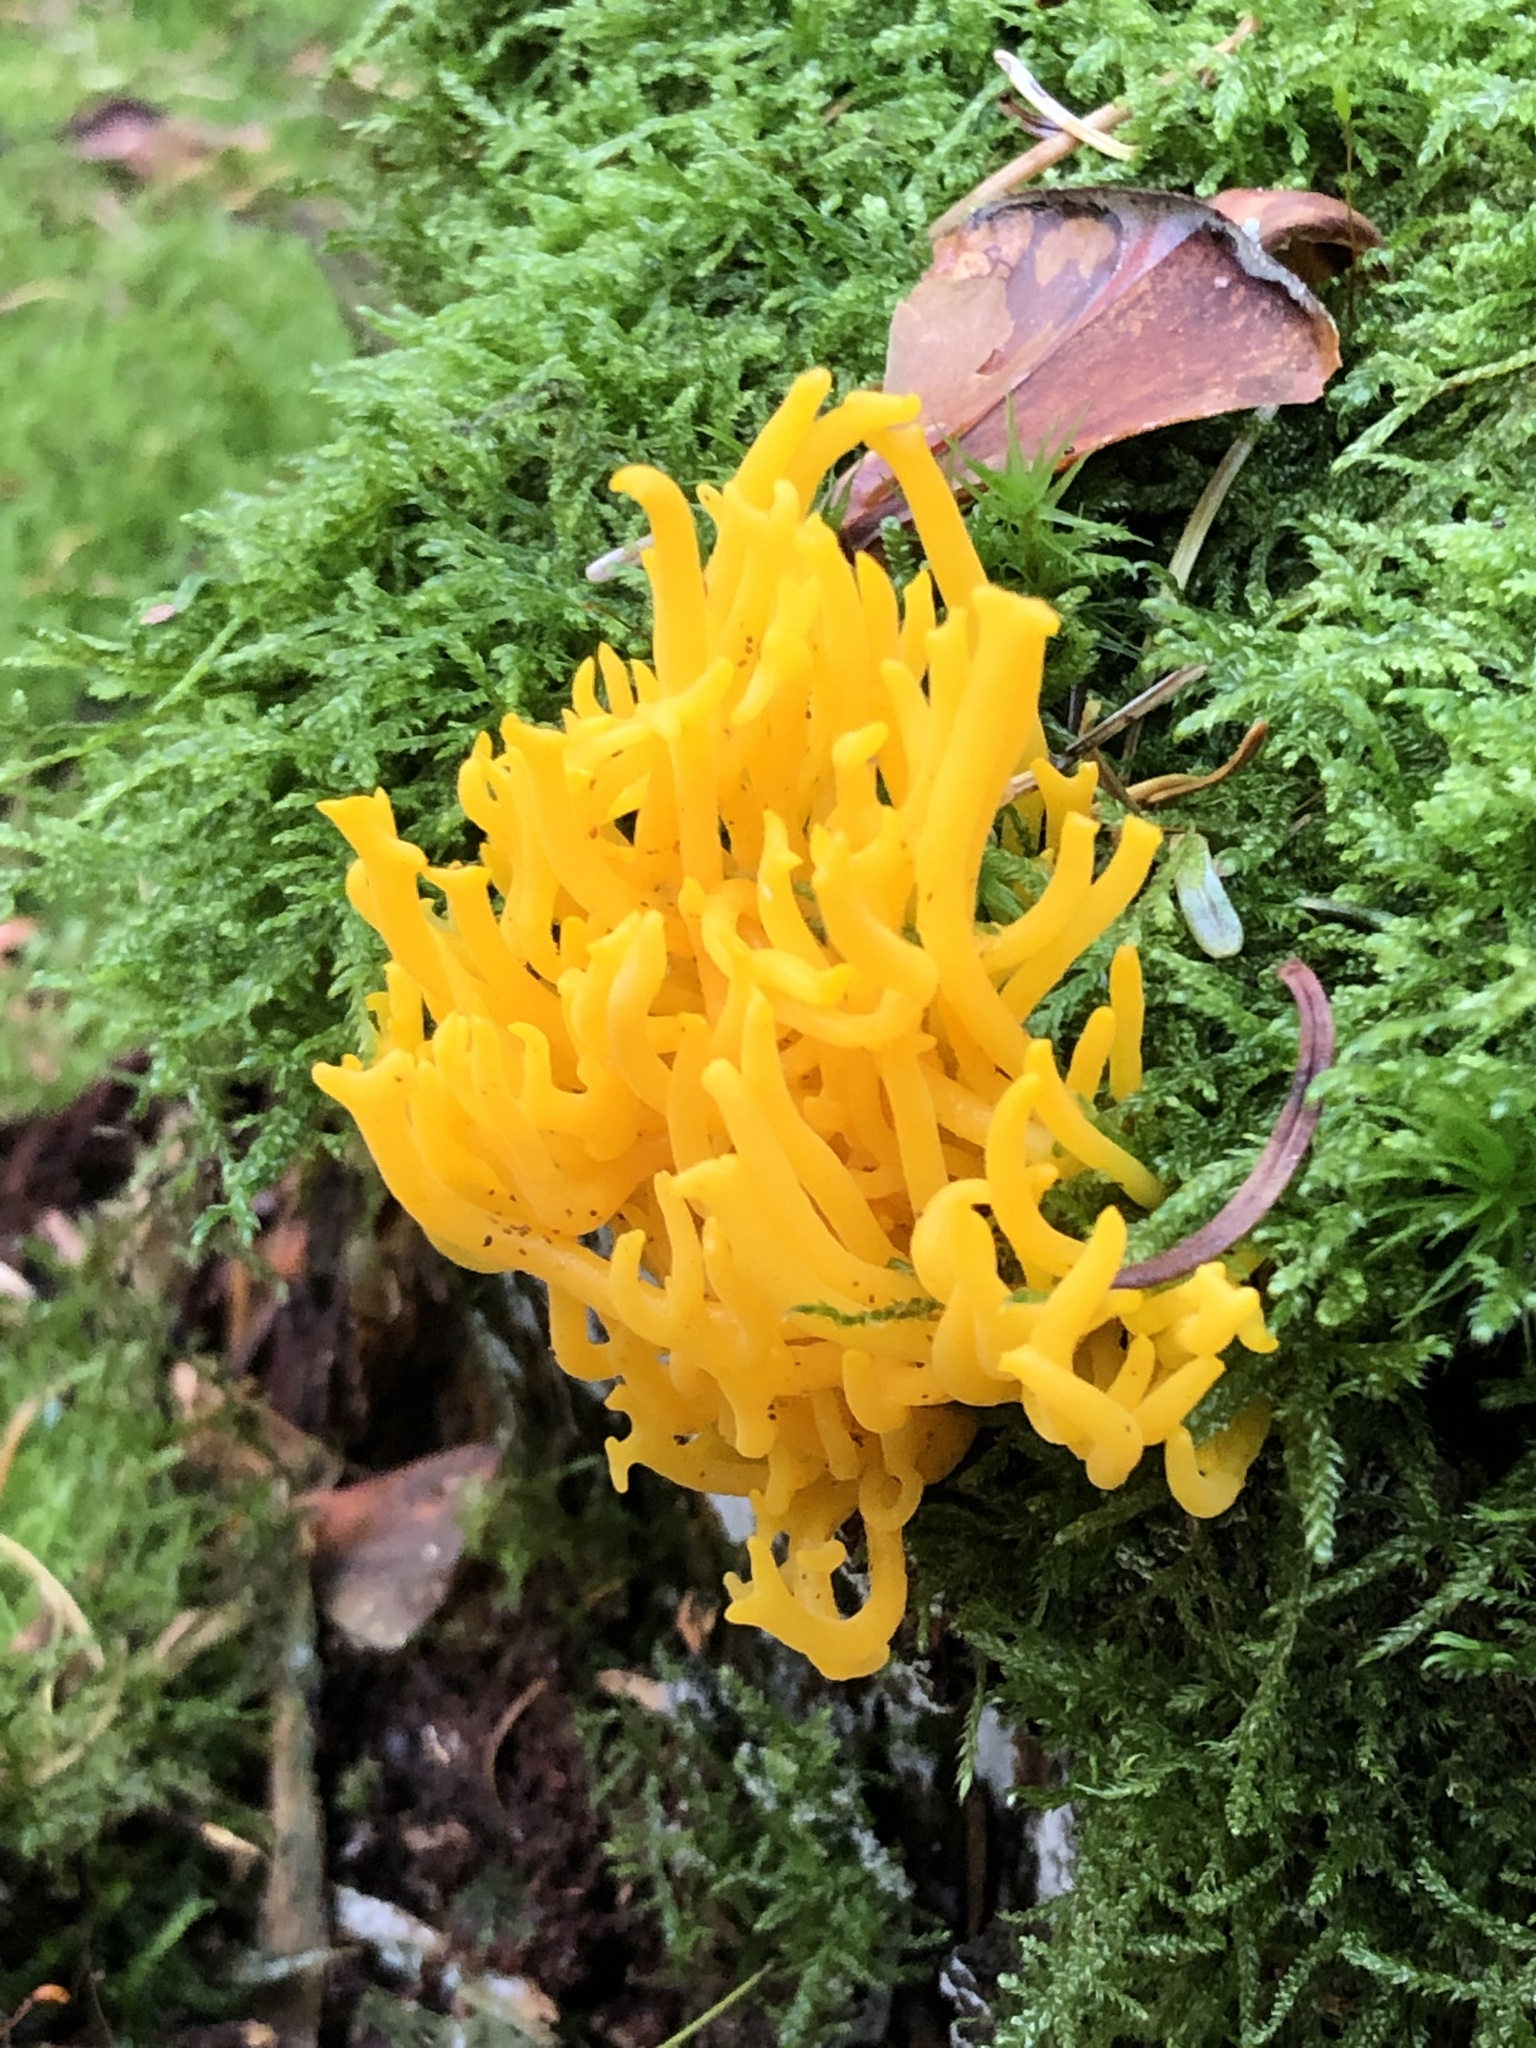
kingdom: Fungi
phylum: Basidiomycota
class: Dacrymycetes
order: Dacrymycetales
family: Dacrymycetaceae
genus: Calocera
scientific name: Calocera viscosa
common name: Yellow stagshorn
